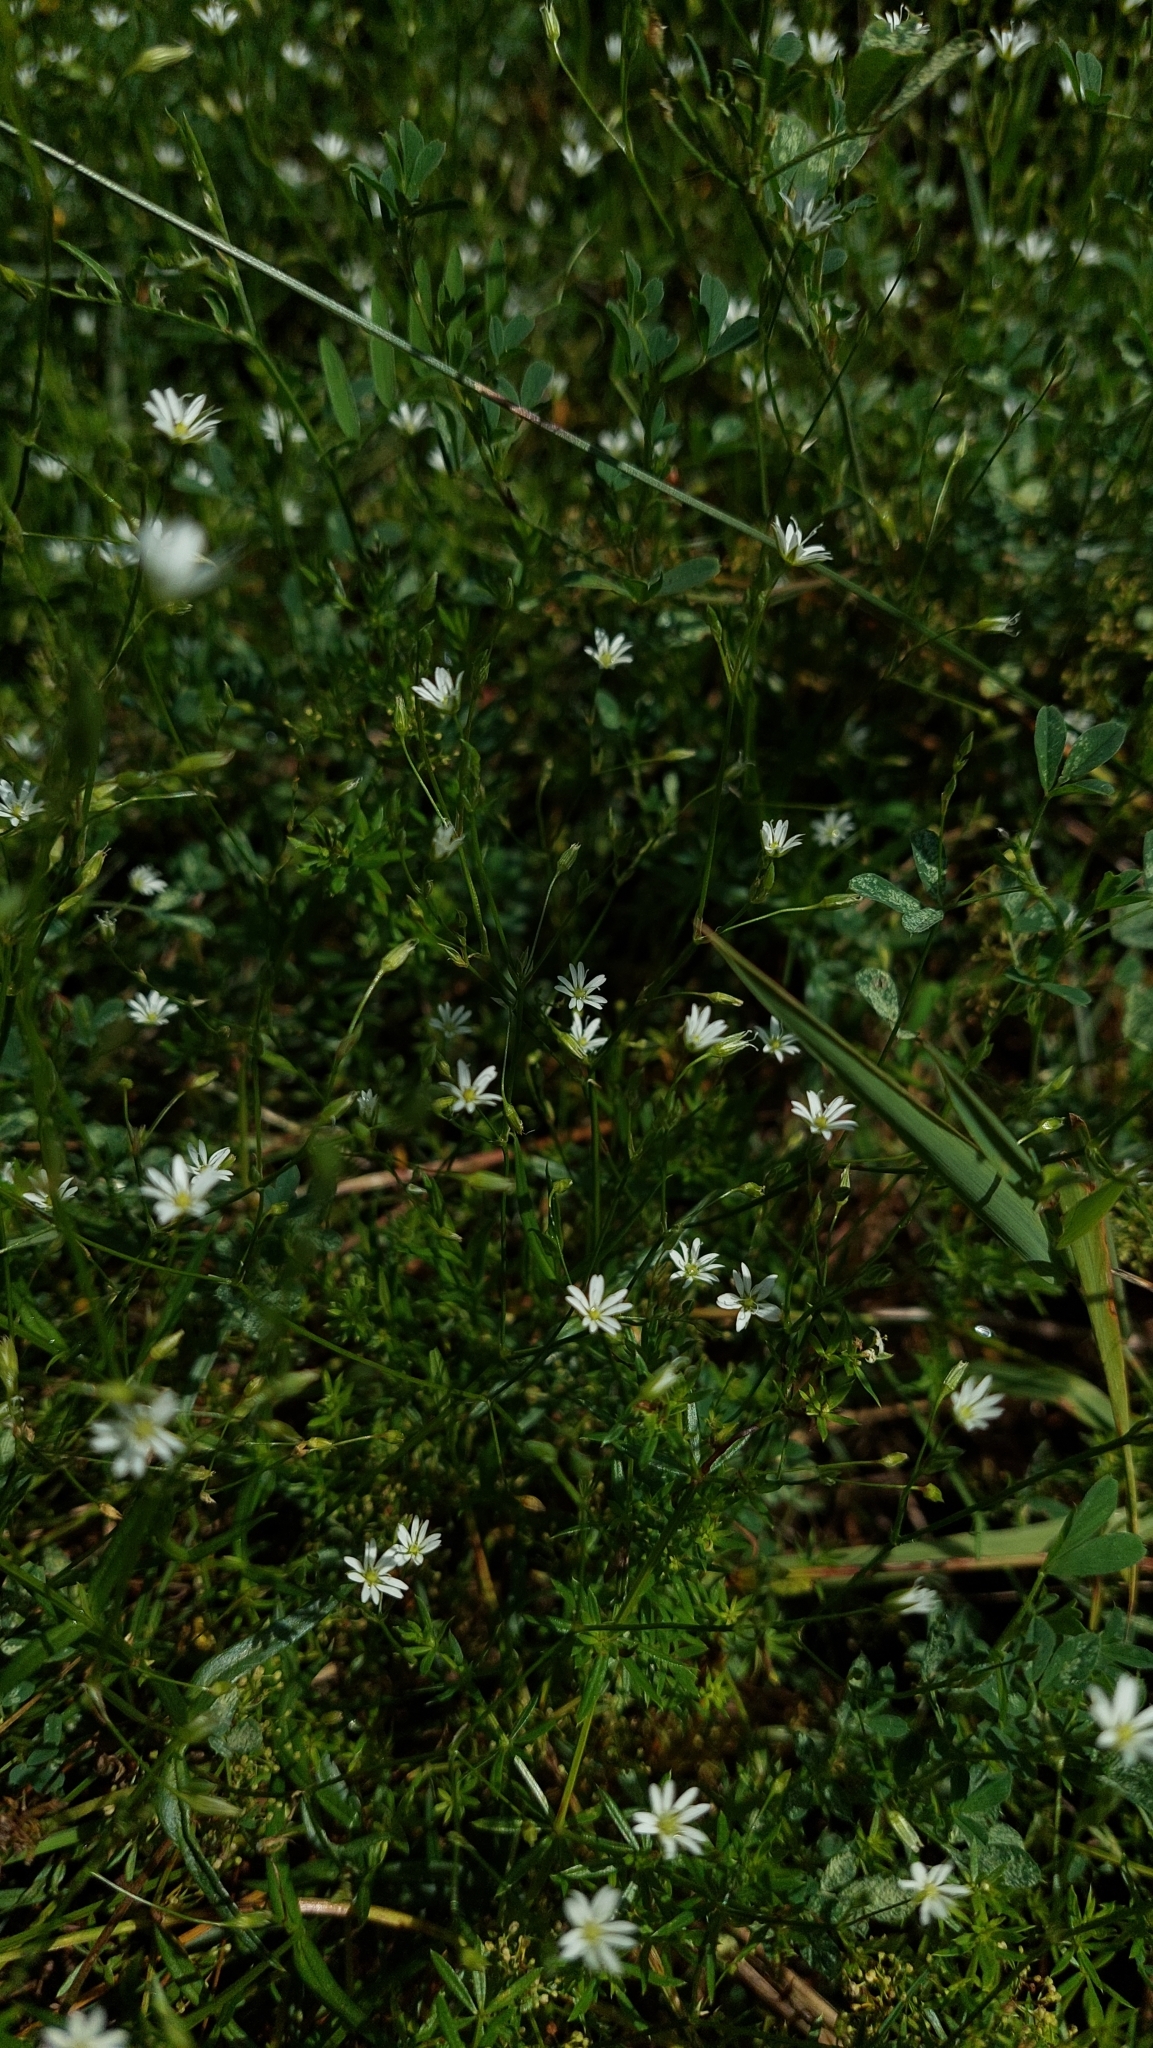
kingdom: Plantae
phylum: Tracheophyta
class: Magnoliopsida
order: Caryophyllales
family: Caryophyllaceae
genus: Stellaria
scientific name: Stellaria graminea
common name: Grass-like starwort
